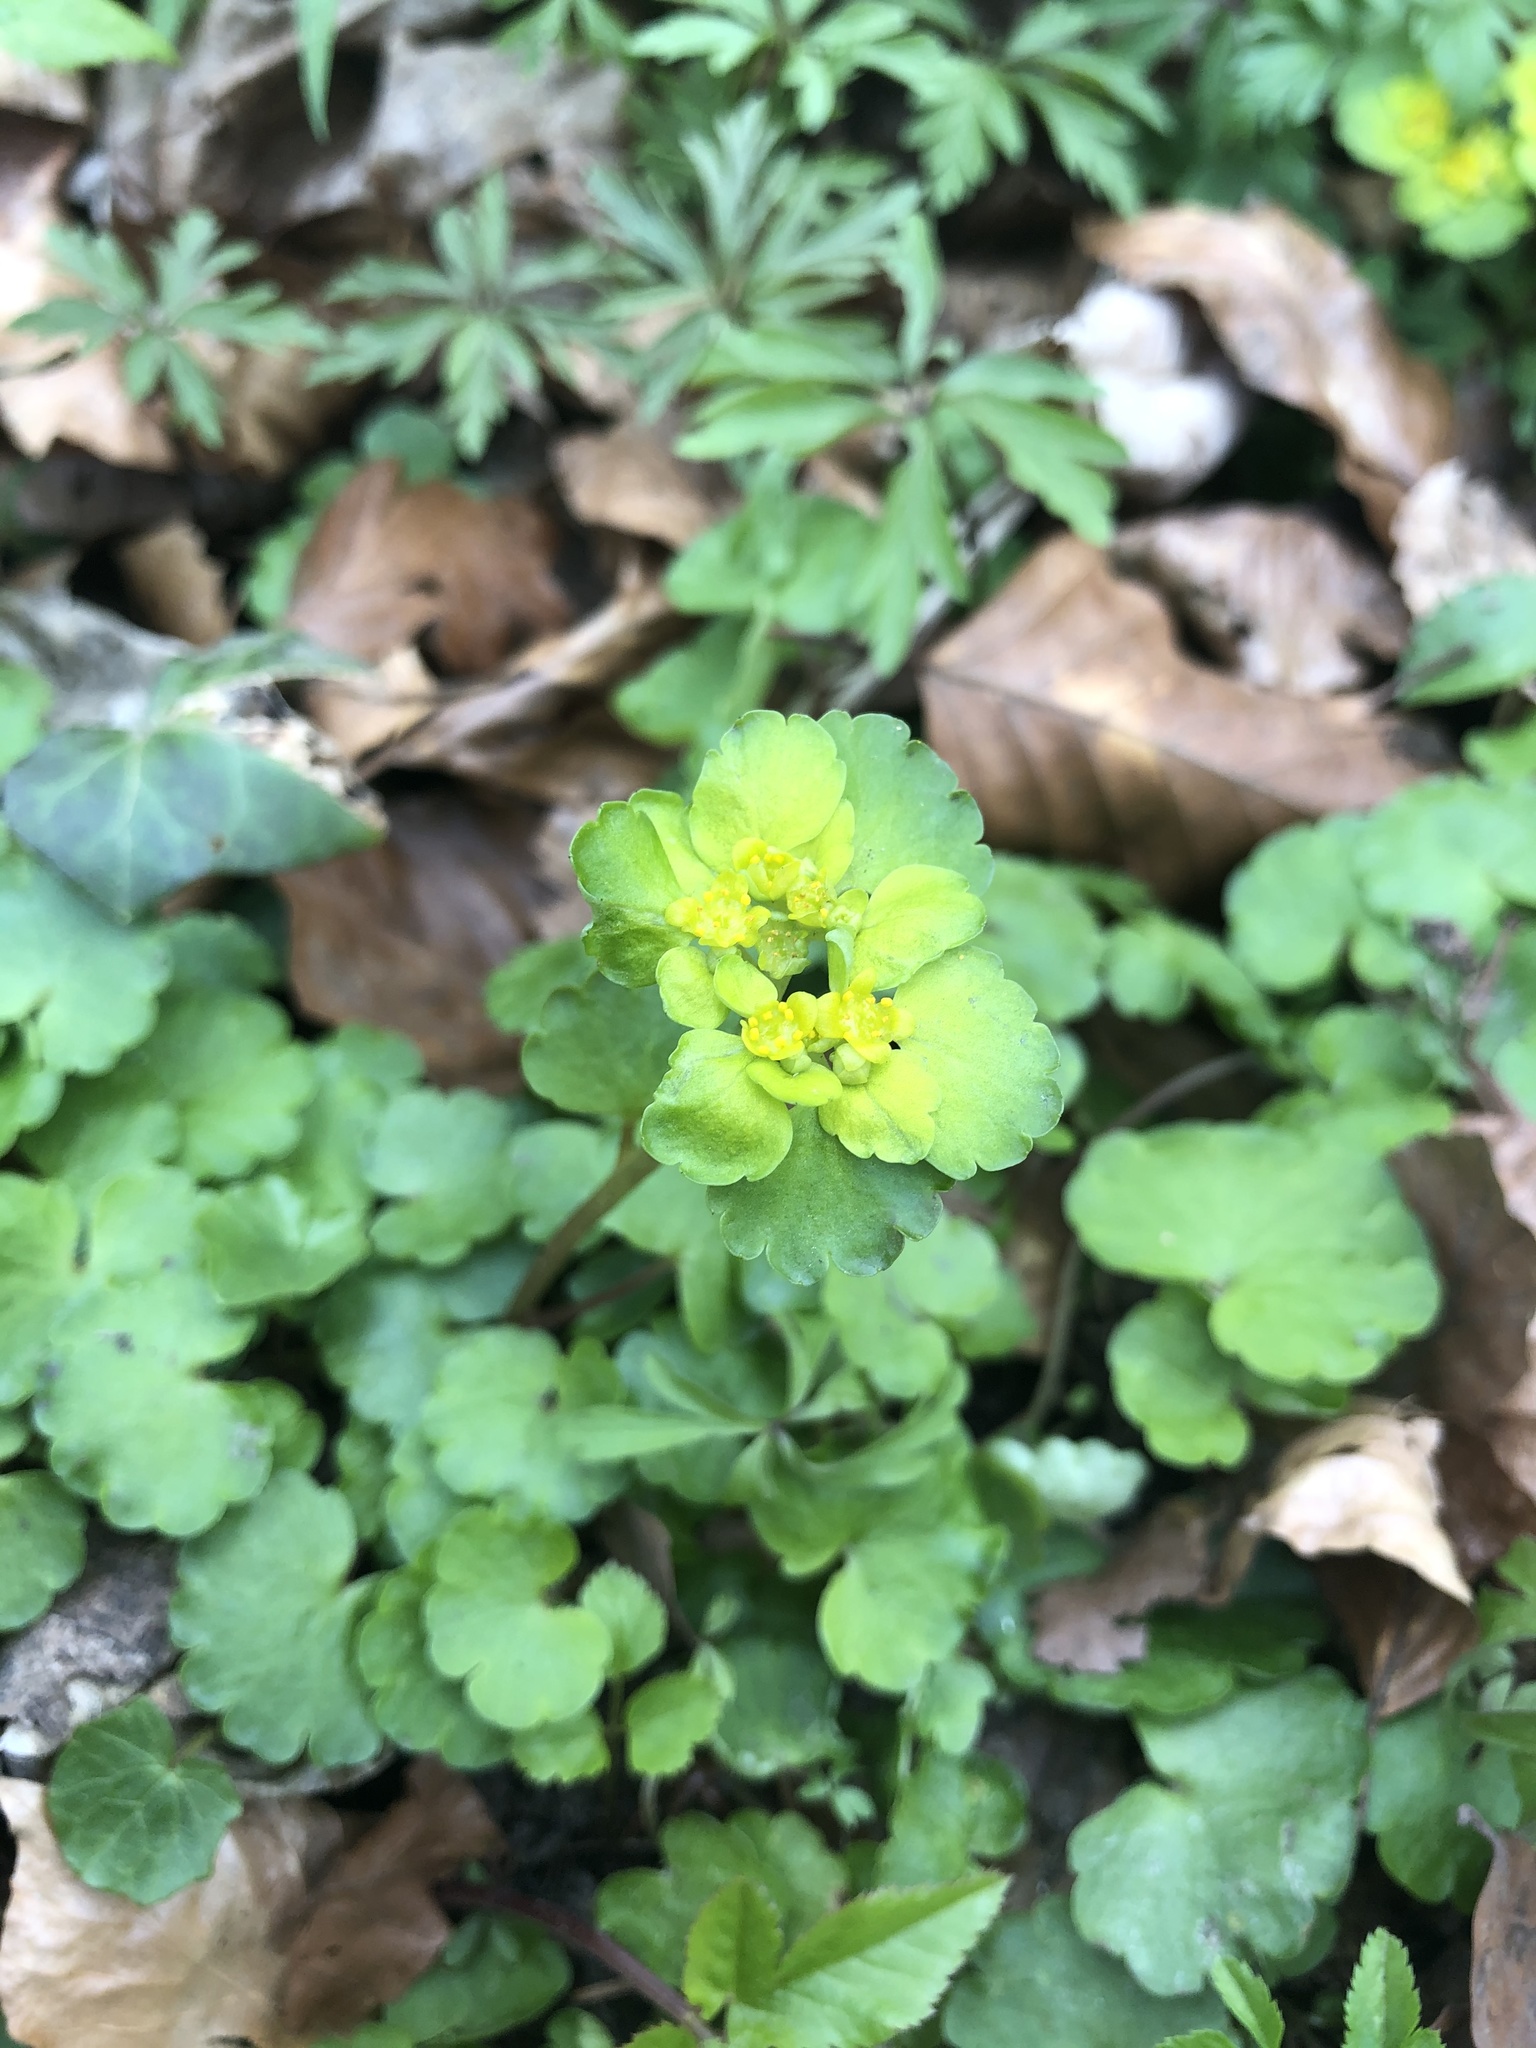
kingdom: Plantae
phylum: Tracheophyta
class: Magnoliopsida
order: Saxifragales
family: Saxifragaceae
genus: Chrysosplenium
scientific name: Chrysosplenium alternifolium
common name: Alternate-leaved golden-saxifrage
